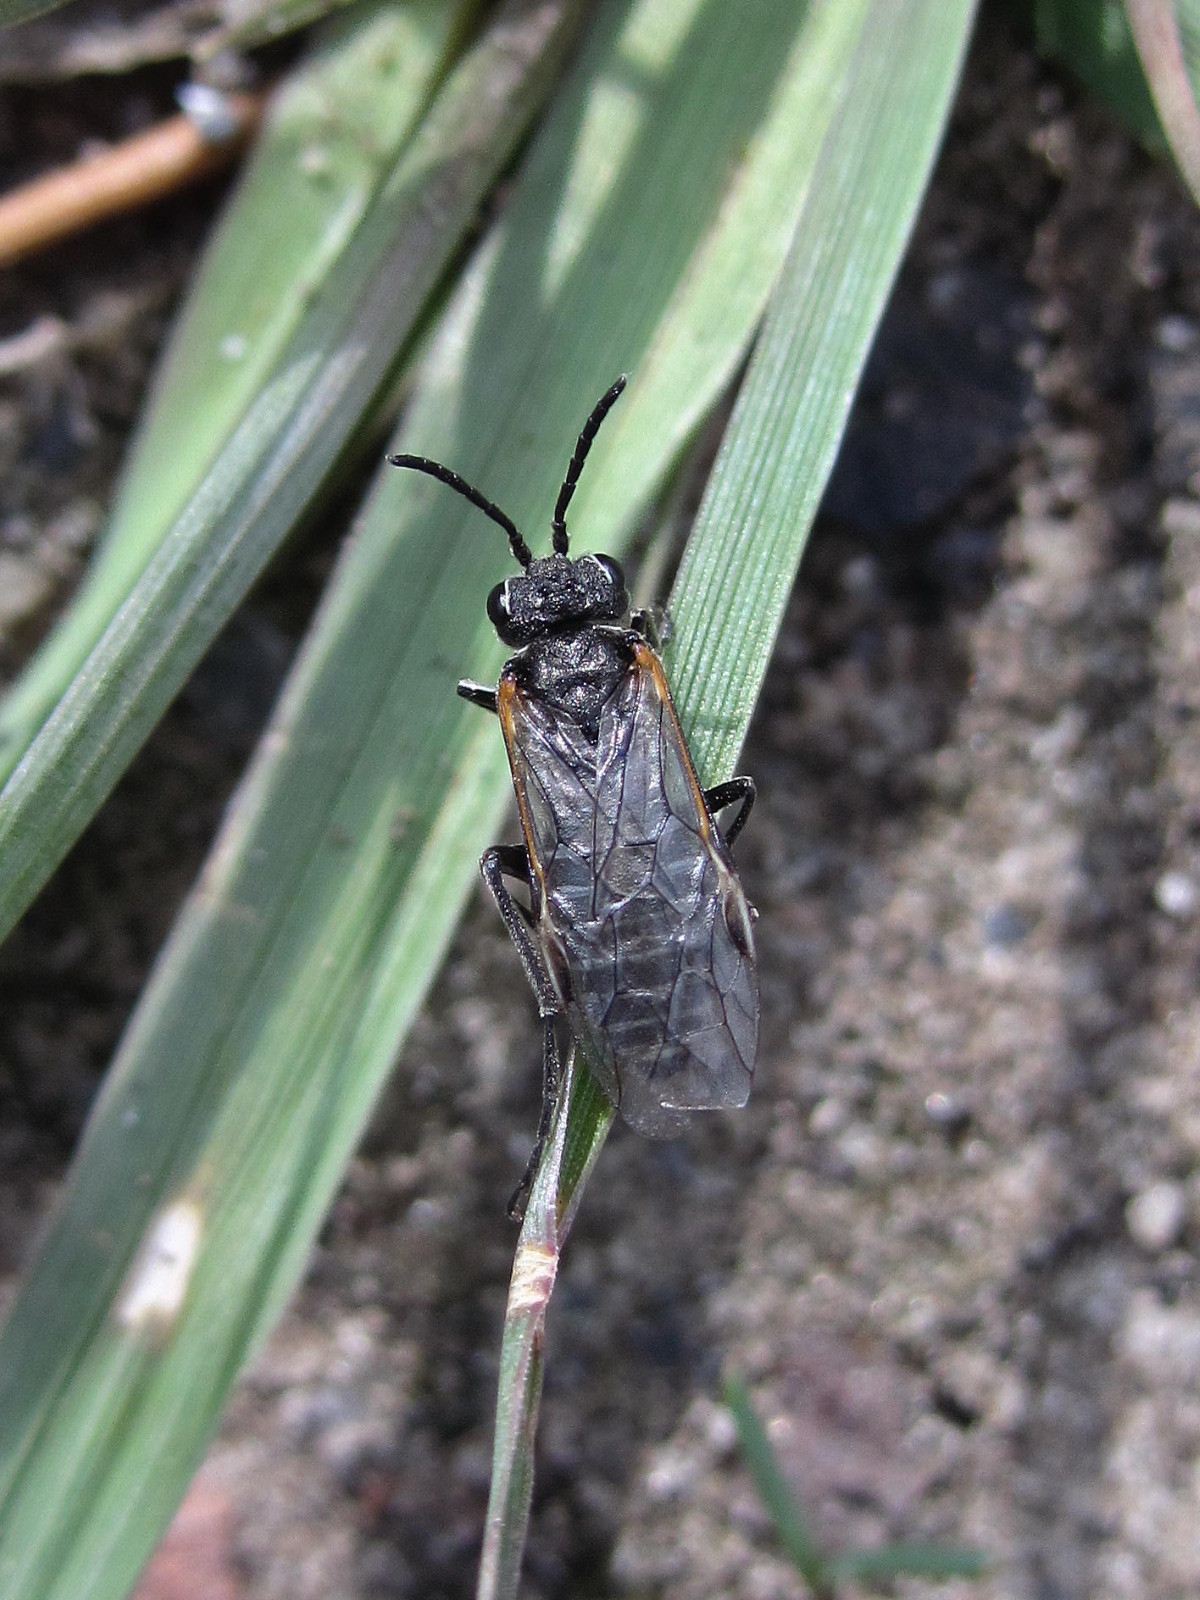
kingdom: Animalia
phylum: Arthropoda
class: Insecta
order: Hymenoptera
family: Tenthredinidae
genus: Sciapteryx
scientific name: Sciapteryx semenowi
